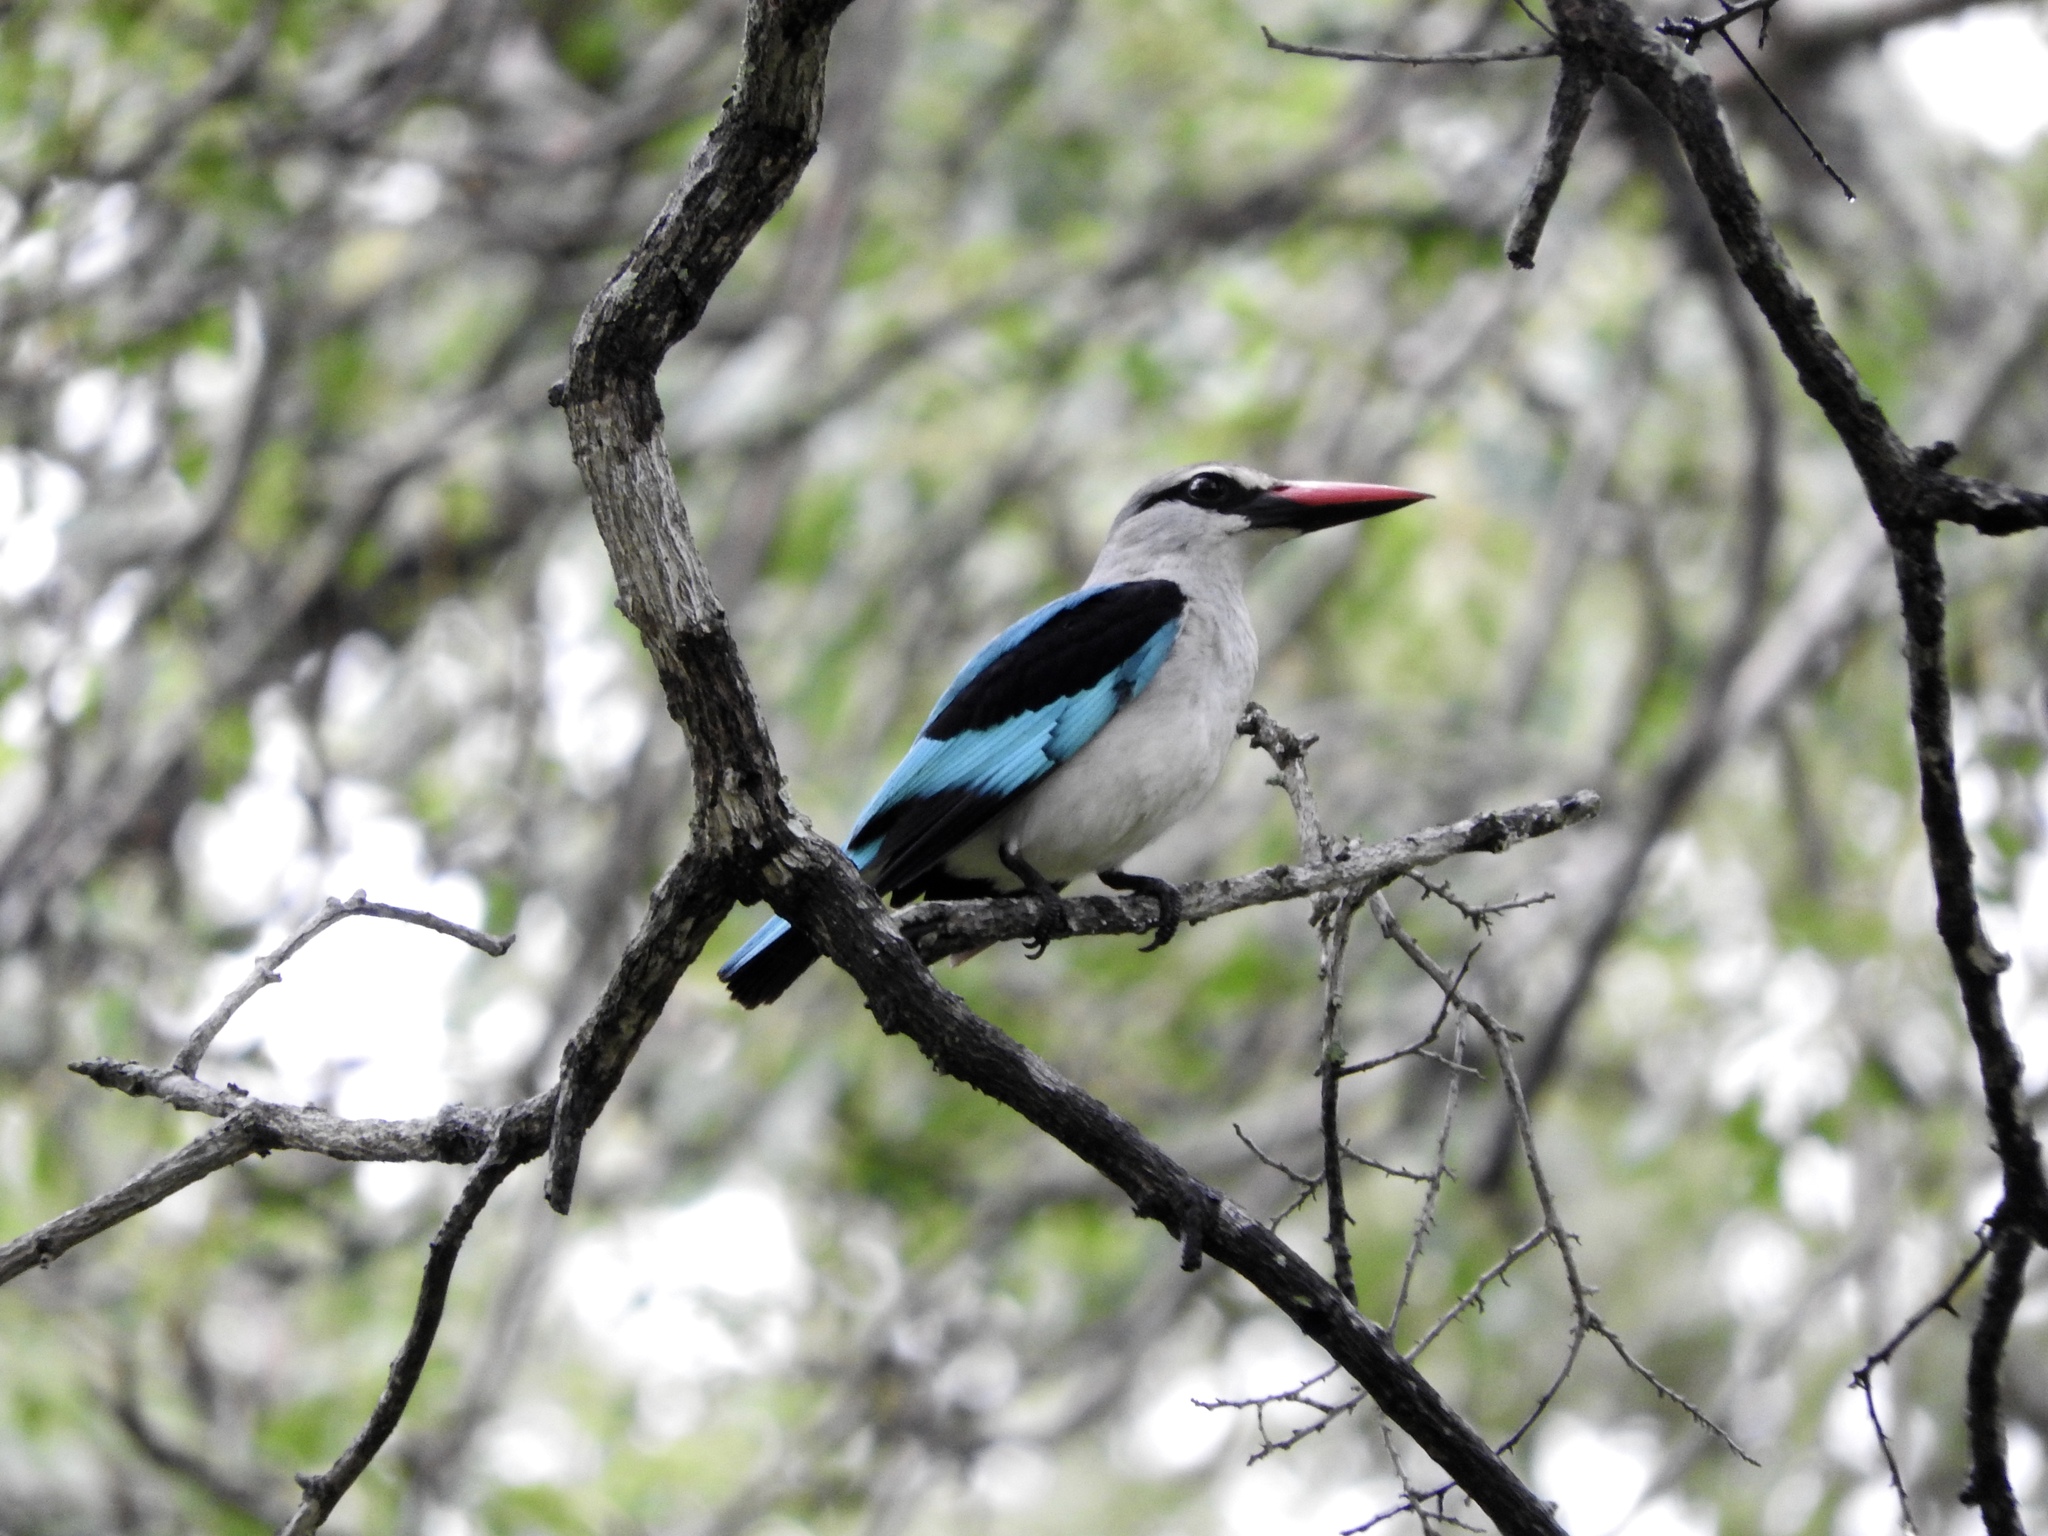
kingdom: Animalia
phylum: Chordata
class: Aves
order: Coraciiformes
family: Alcedinidae
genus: Halcyon
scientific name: Halcyon senegalensis
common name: Woodland kingfisher
